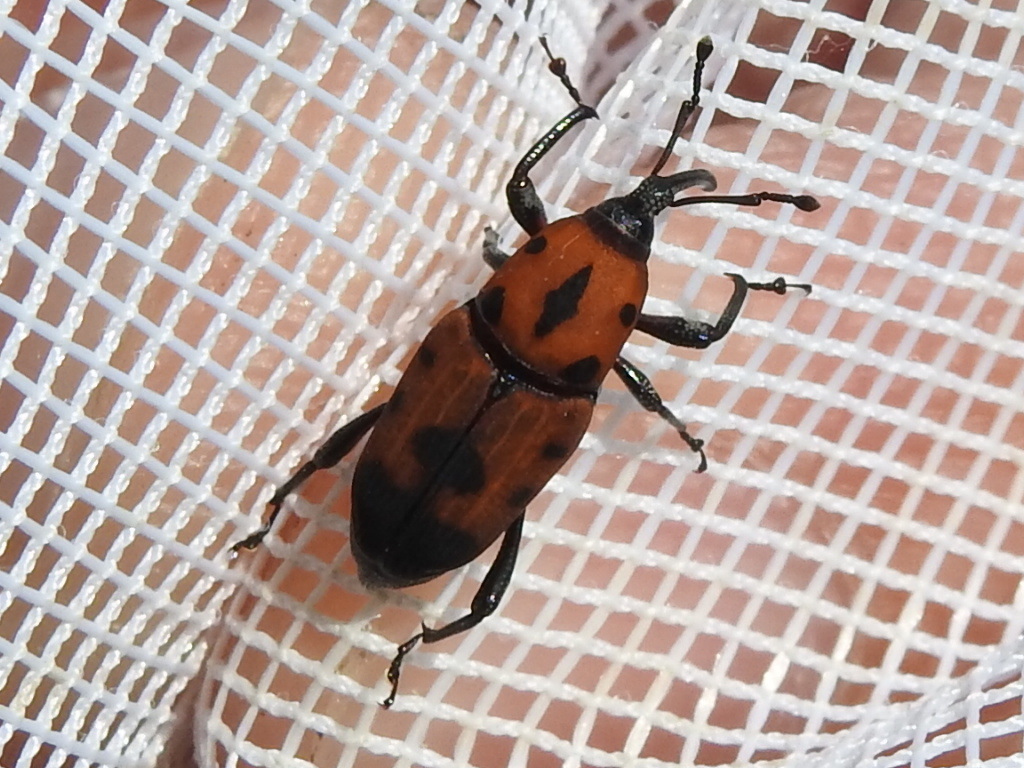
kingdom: Animalia
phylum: Arthropoda
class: Insecta
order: Coleoptera
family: Dryophthoridae
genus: Rhodobaenus
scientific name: Rhodobaenus quinquepunctatus
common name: Cocklebur weevil
